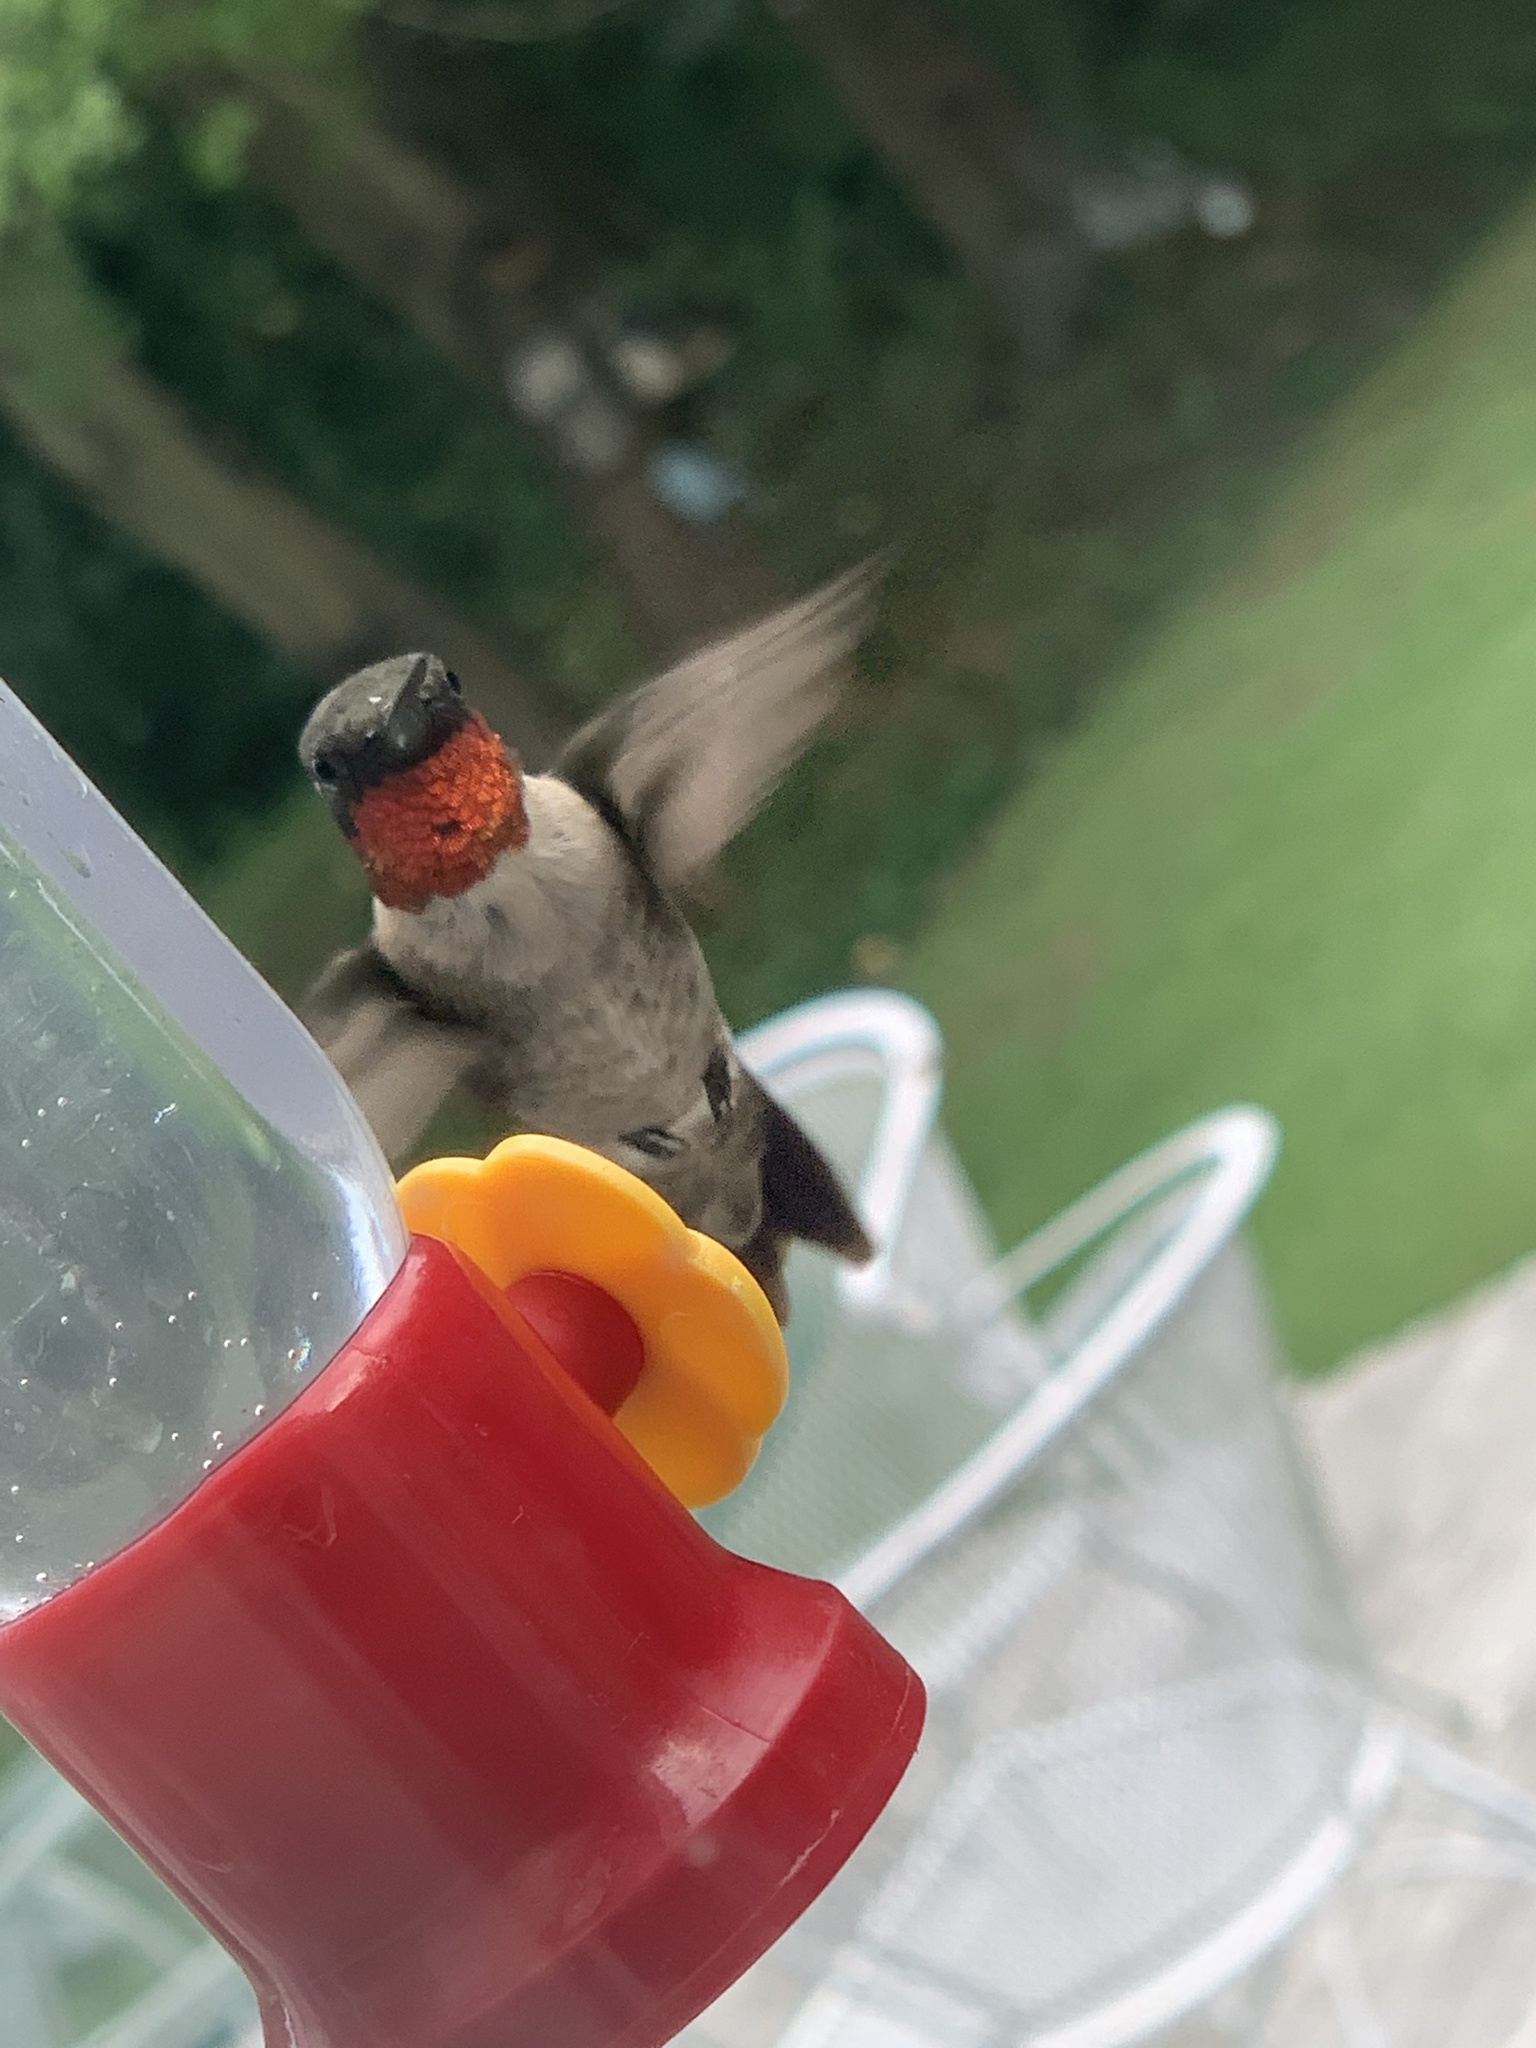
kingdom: Animalia
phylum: Chordata
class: Aves
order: Apodiformes
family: Trochilidae
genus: Archilochus
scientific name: Archilochus colubris
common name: Ruby-throated hummingbird
